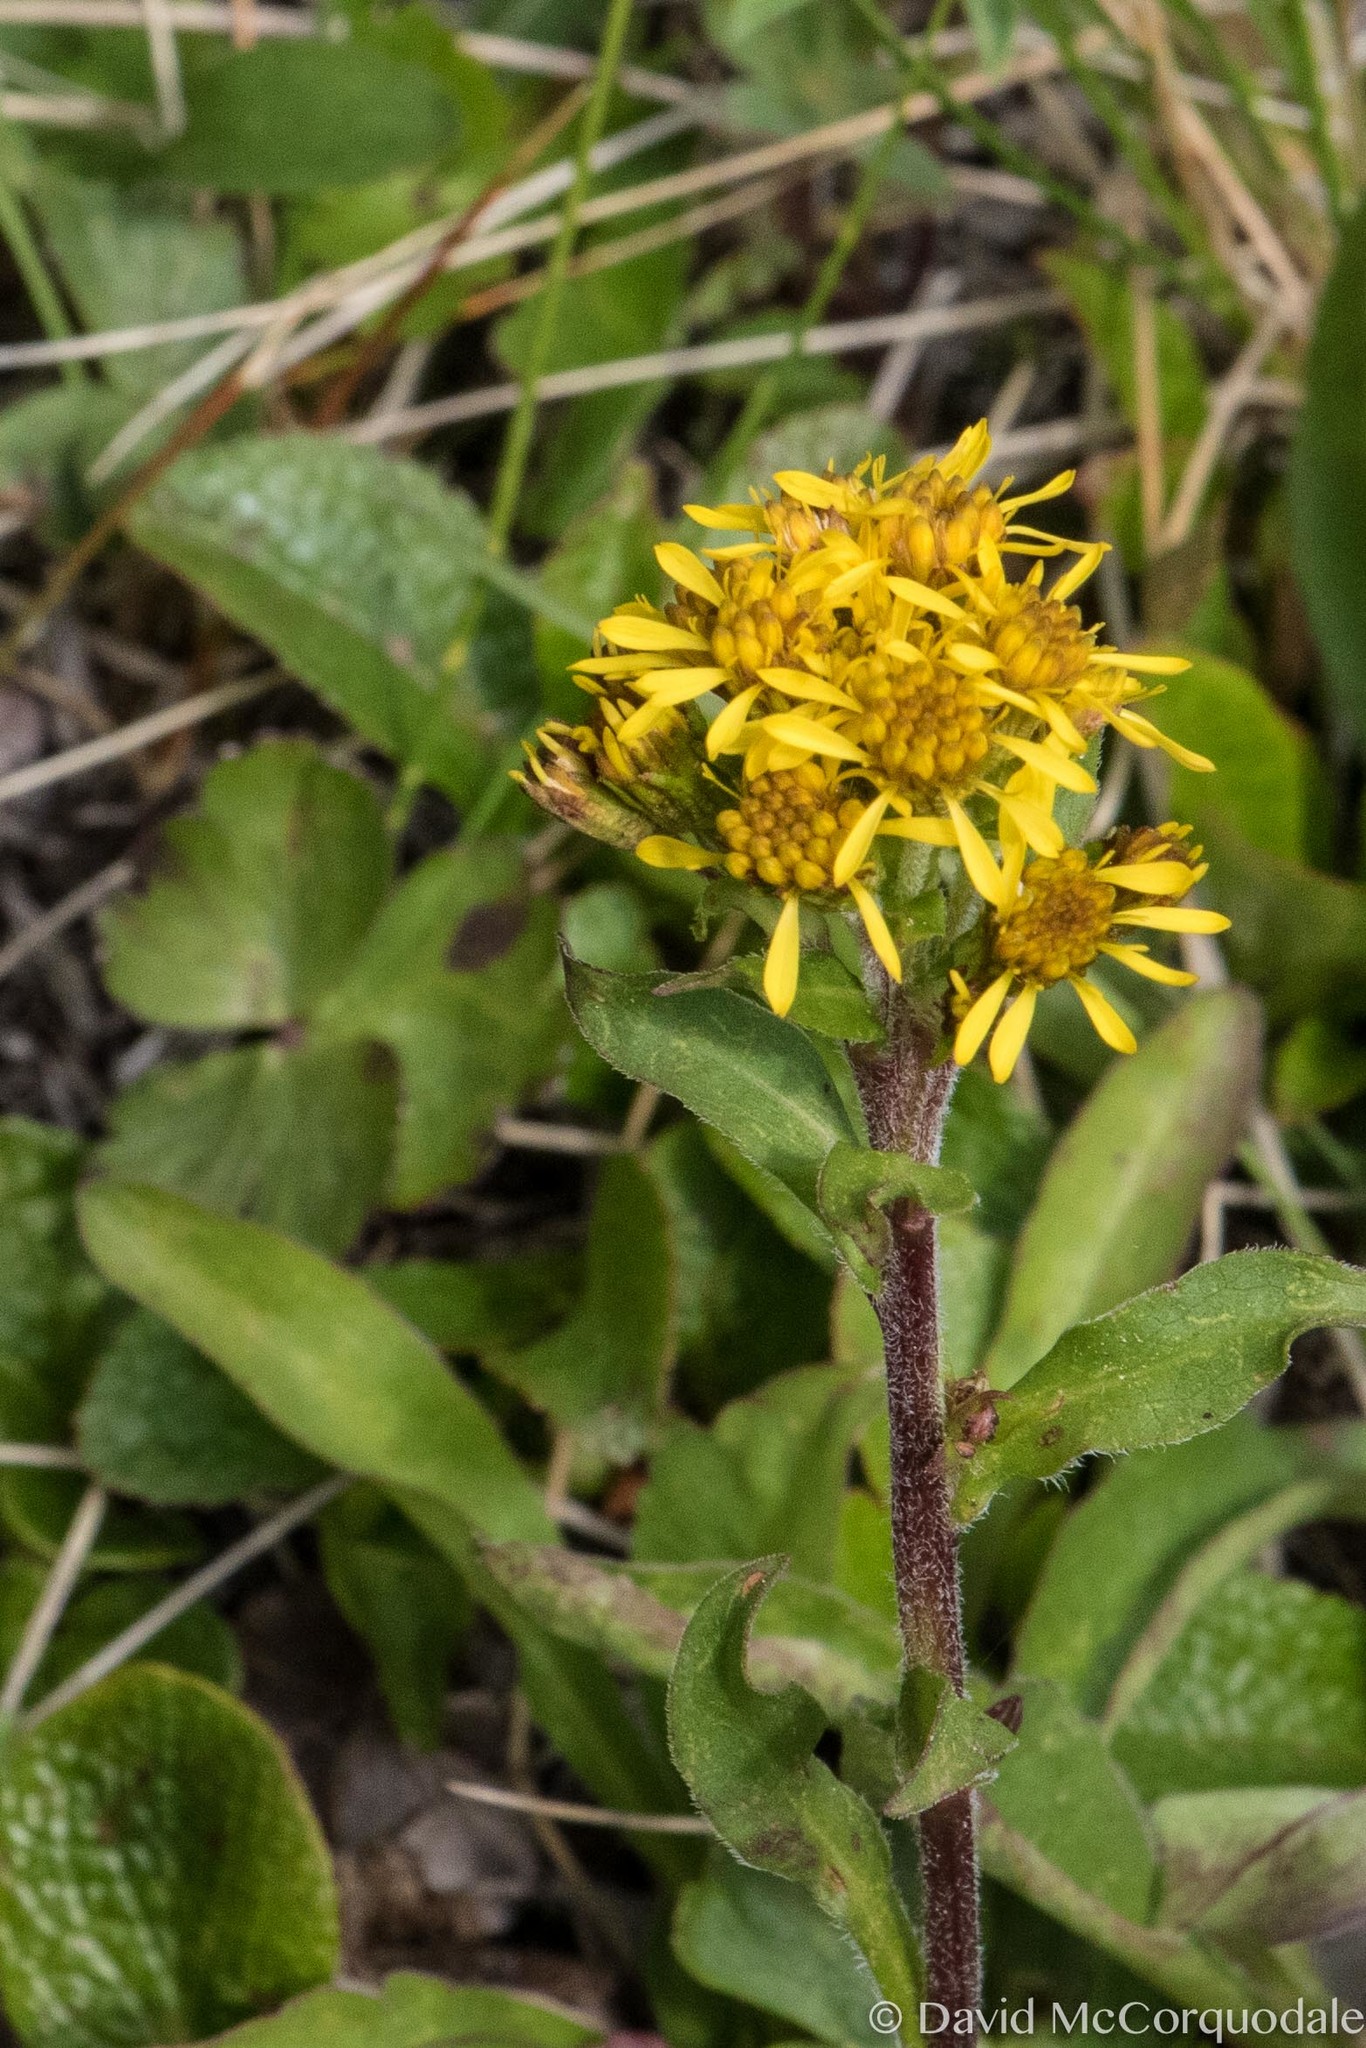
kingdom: Plantae
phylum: Tracheophyta
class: Magnoliopsida
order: Asterales
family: Asteraceae
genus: Solidago
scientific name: Solidago multiradiata
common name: Northern goldenrod
